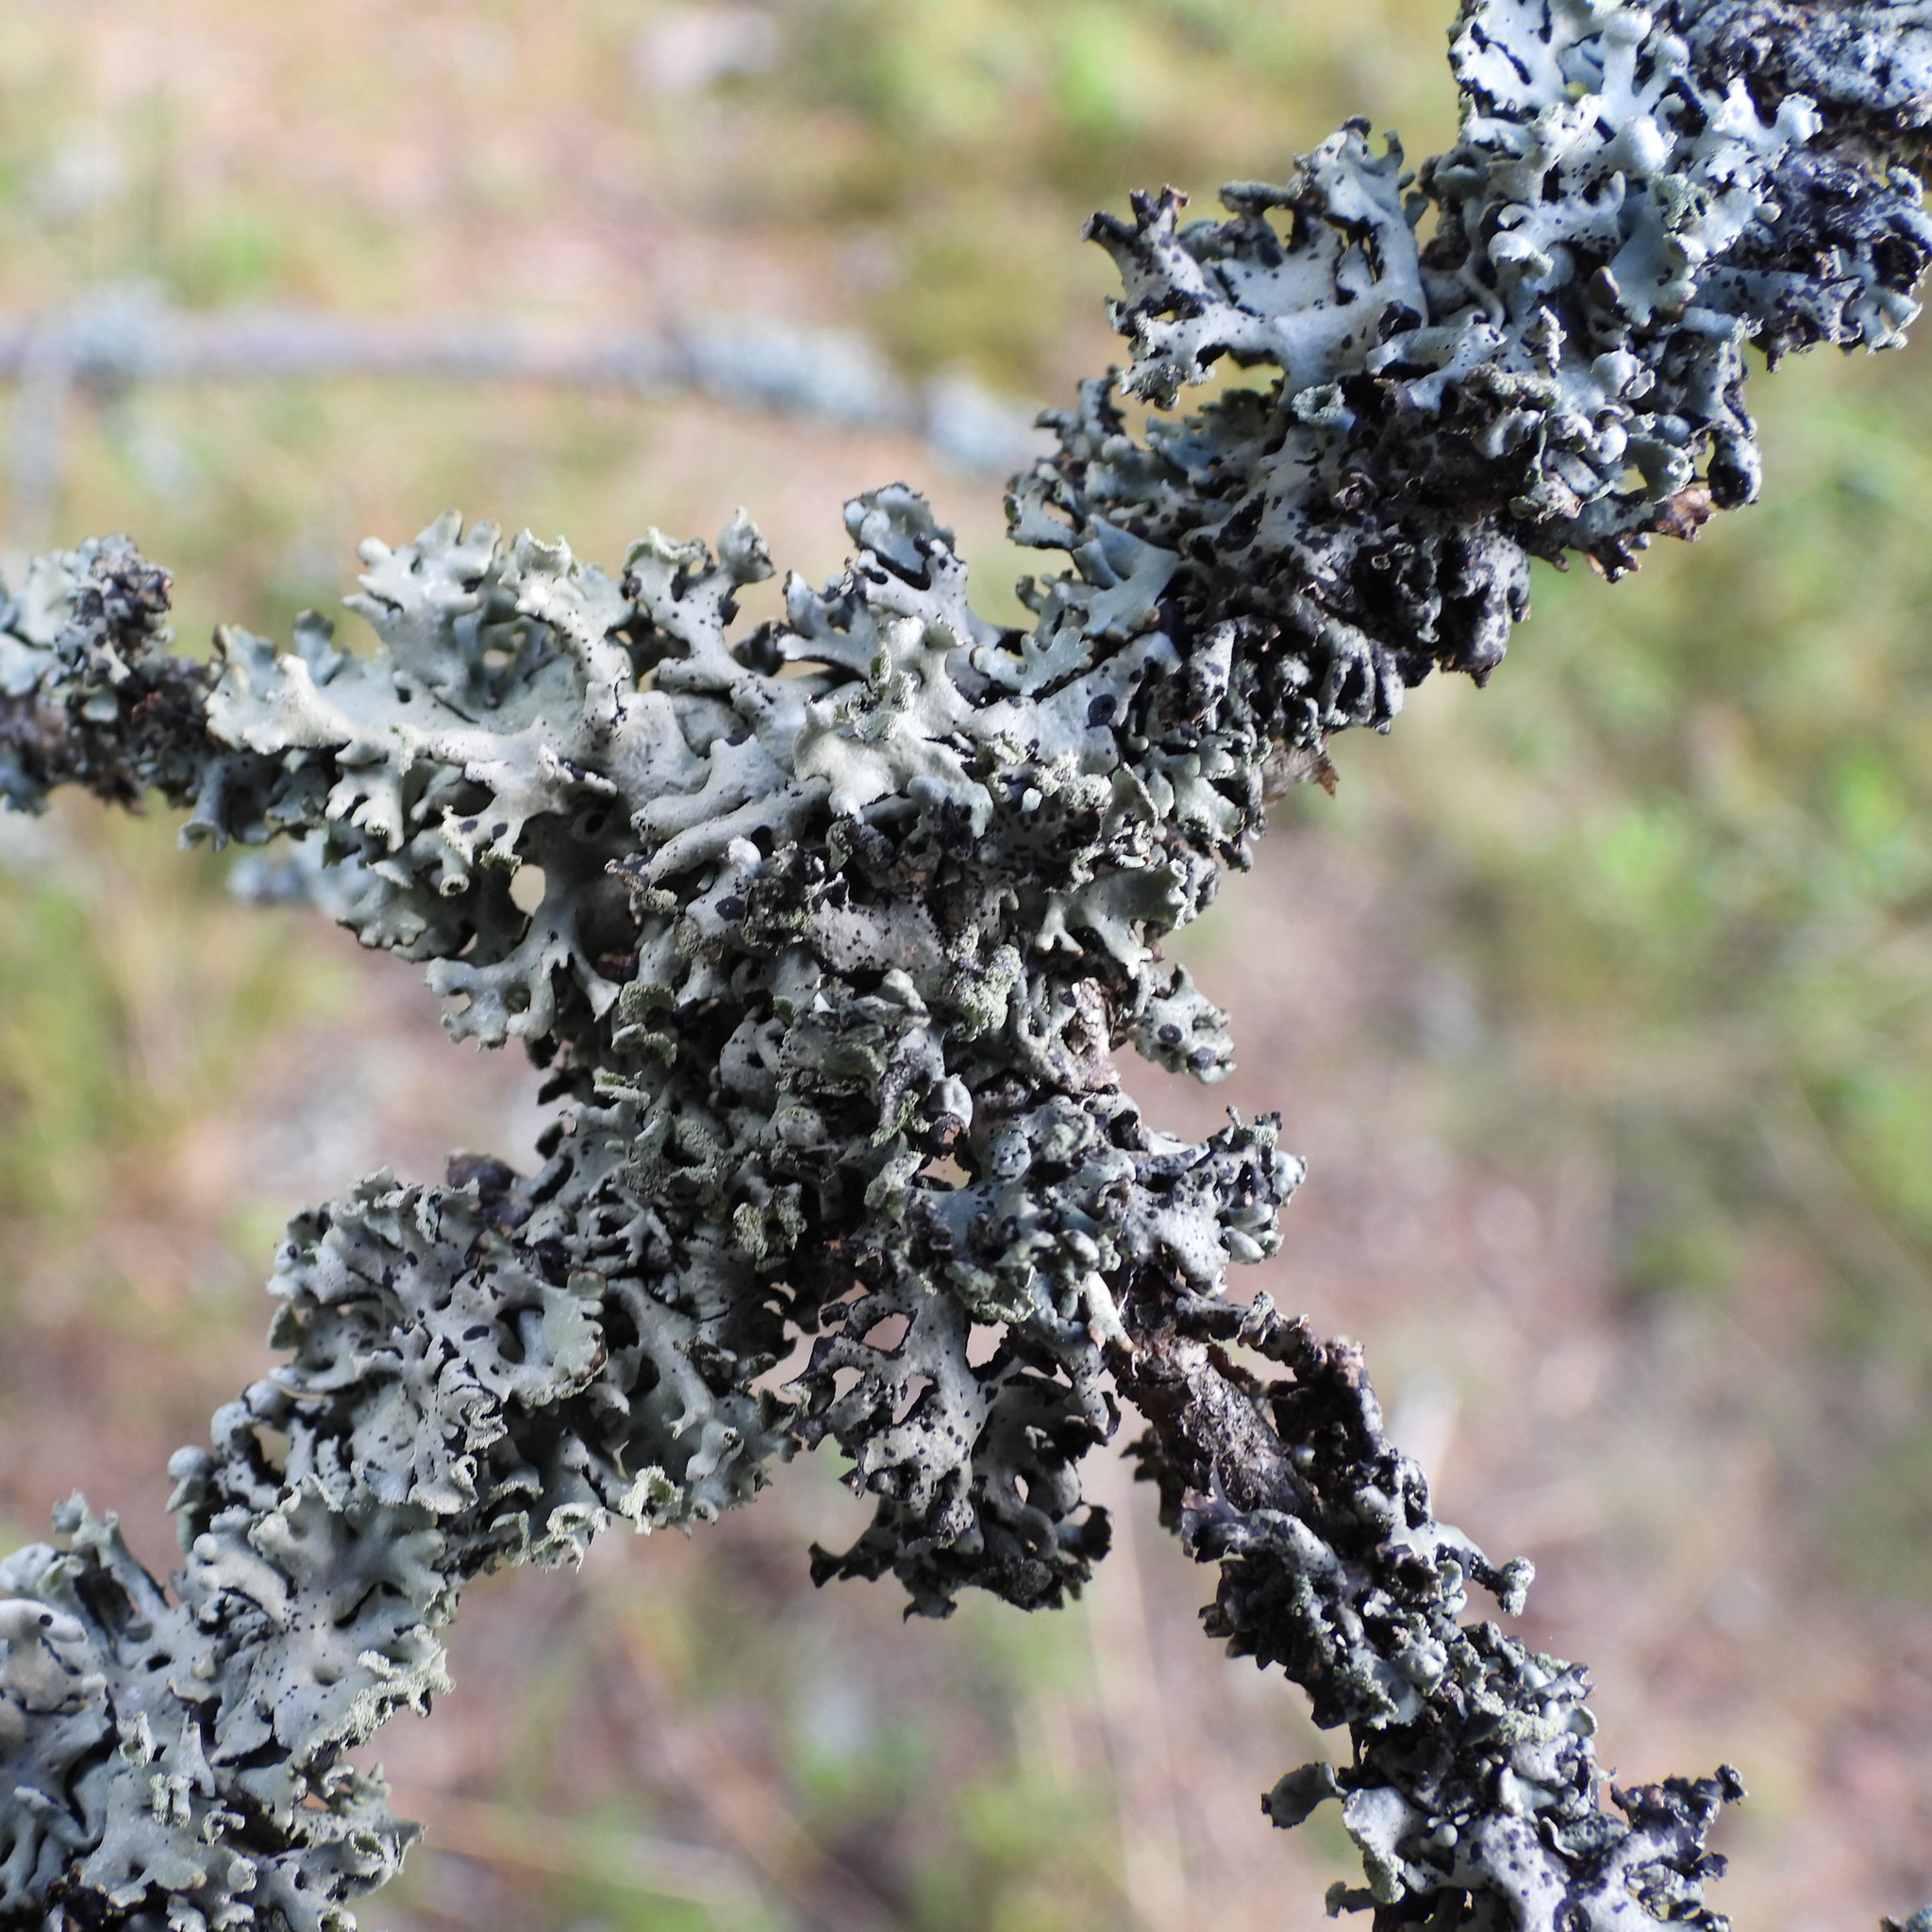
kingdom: Fungi
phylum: Ascomycota
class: Lecanoromycetes
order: Lecanorales
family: Parmeliaceae
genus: Hypogymnia
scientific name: Hypogymnia physodes
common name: Dark crottle
